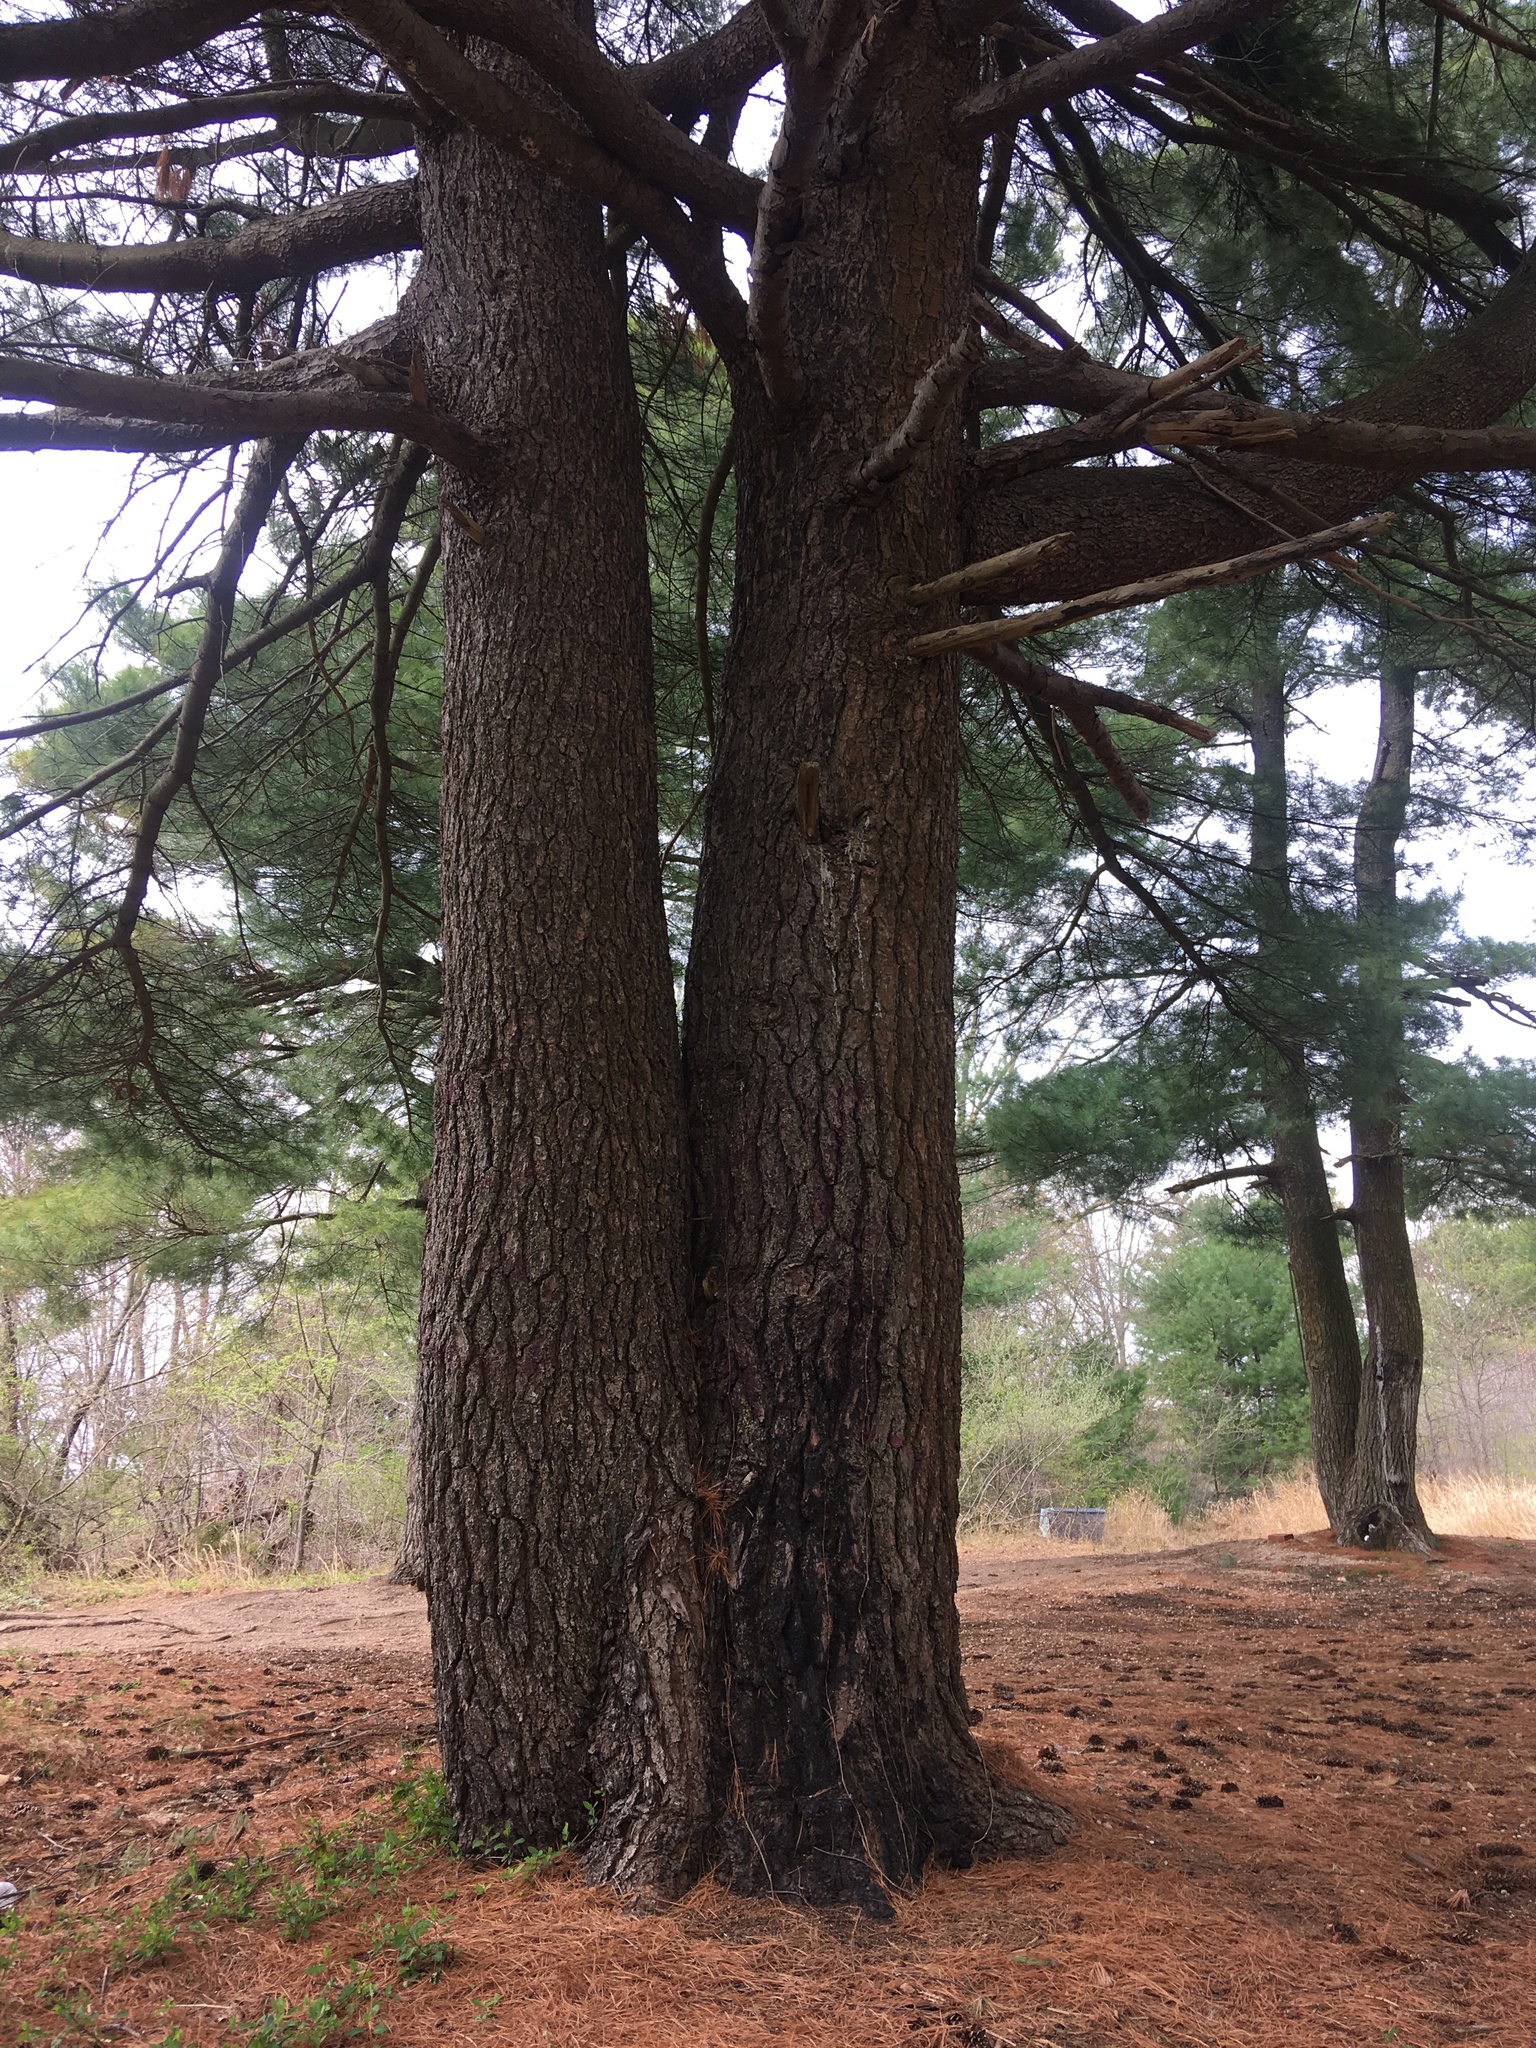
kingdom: Plantae
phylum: Tracheophyta
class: Pinopsida
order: Pinales
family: Pinaceae
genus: Pinus
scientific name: Pinus strobus
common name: Weymouth pine
